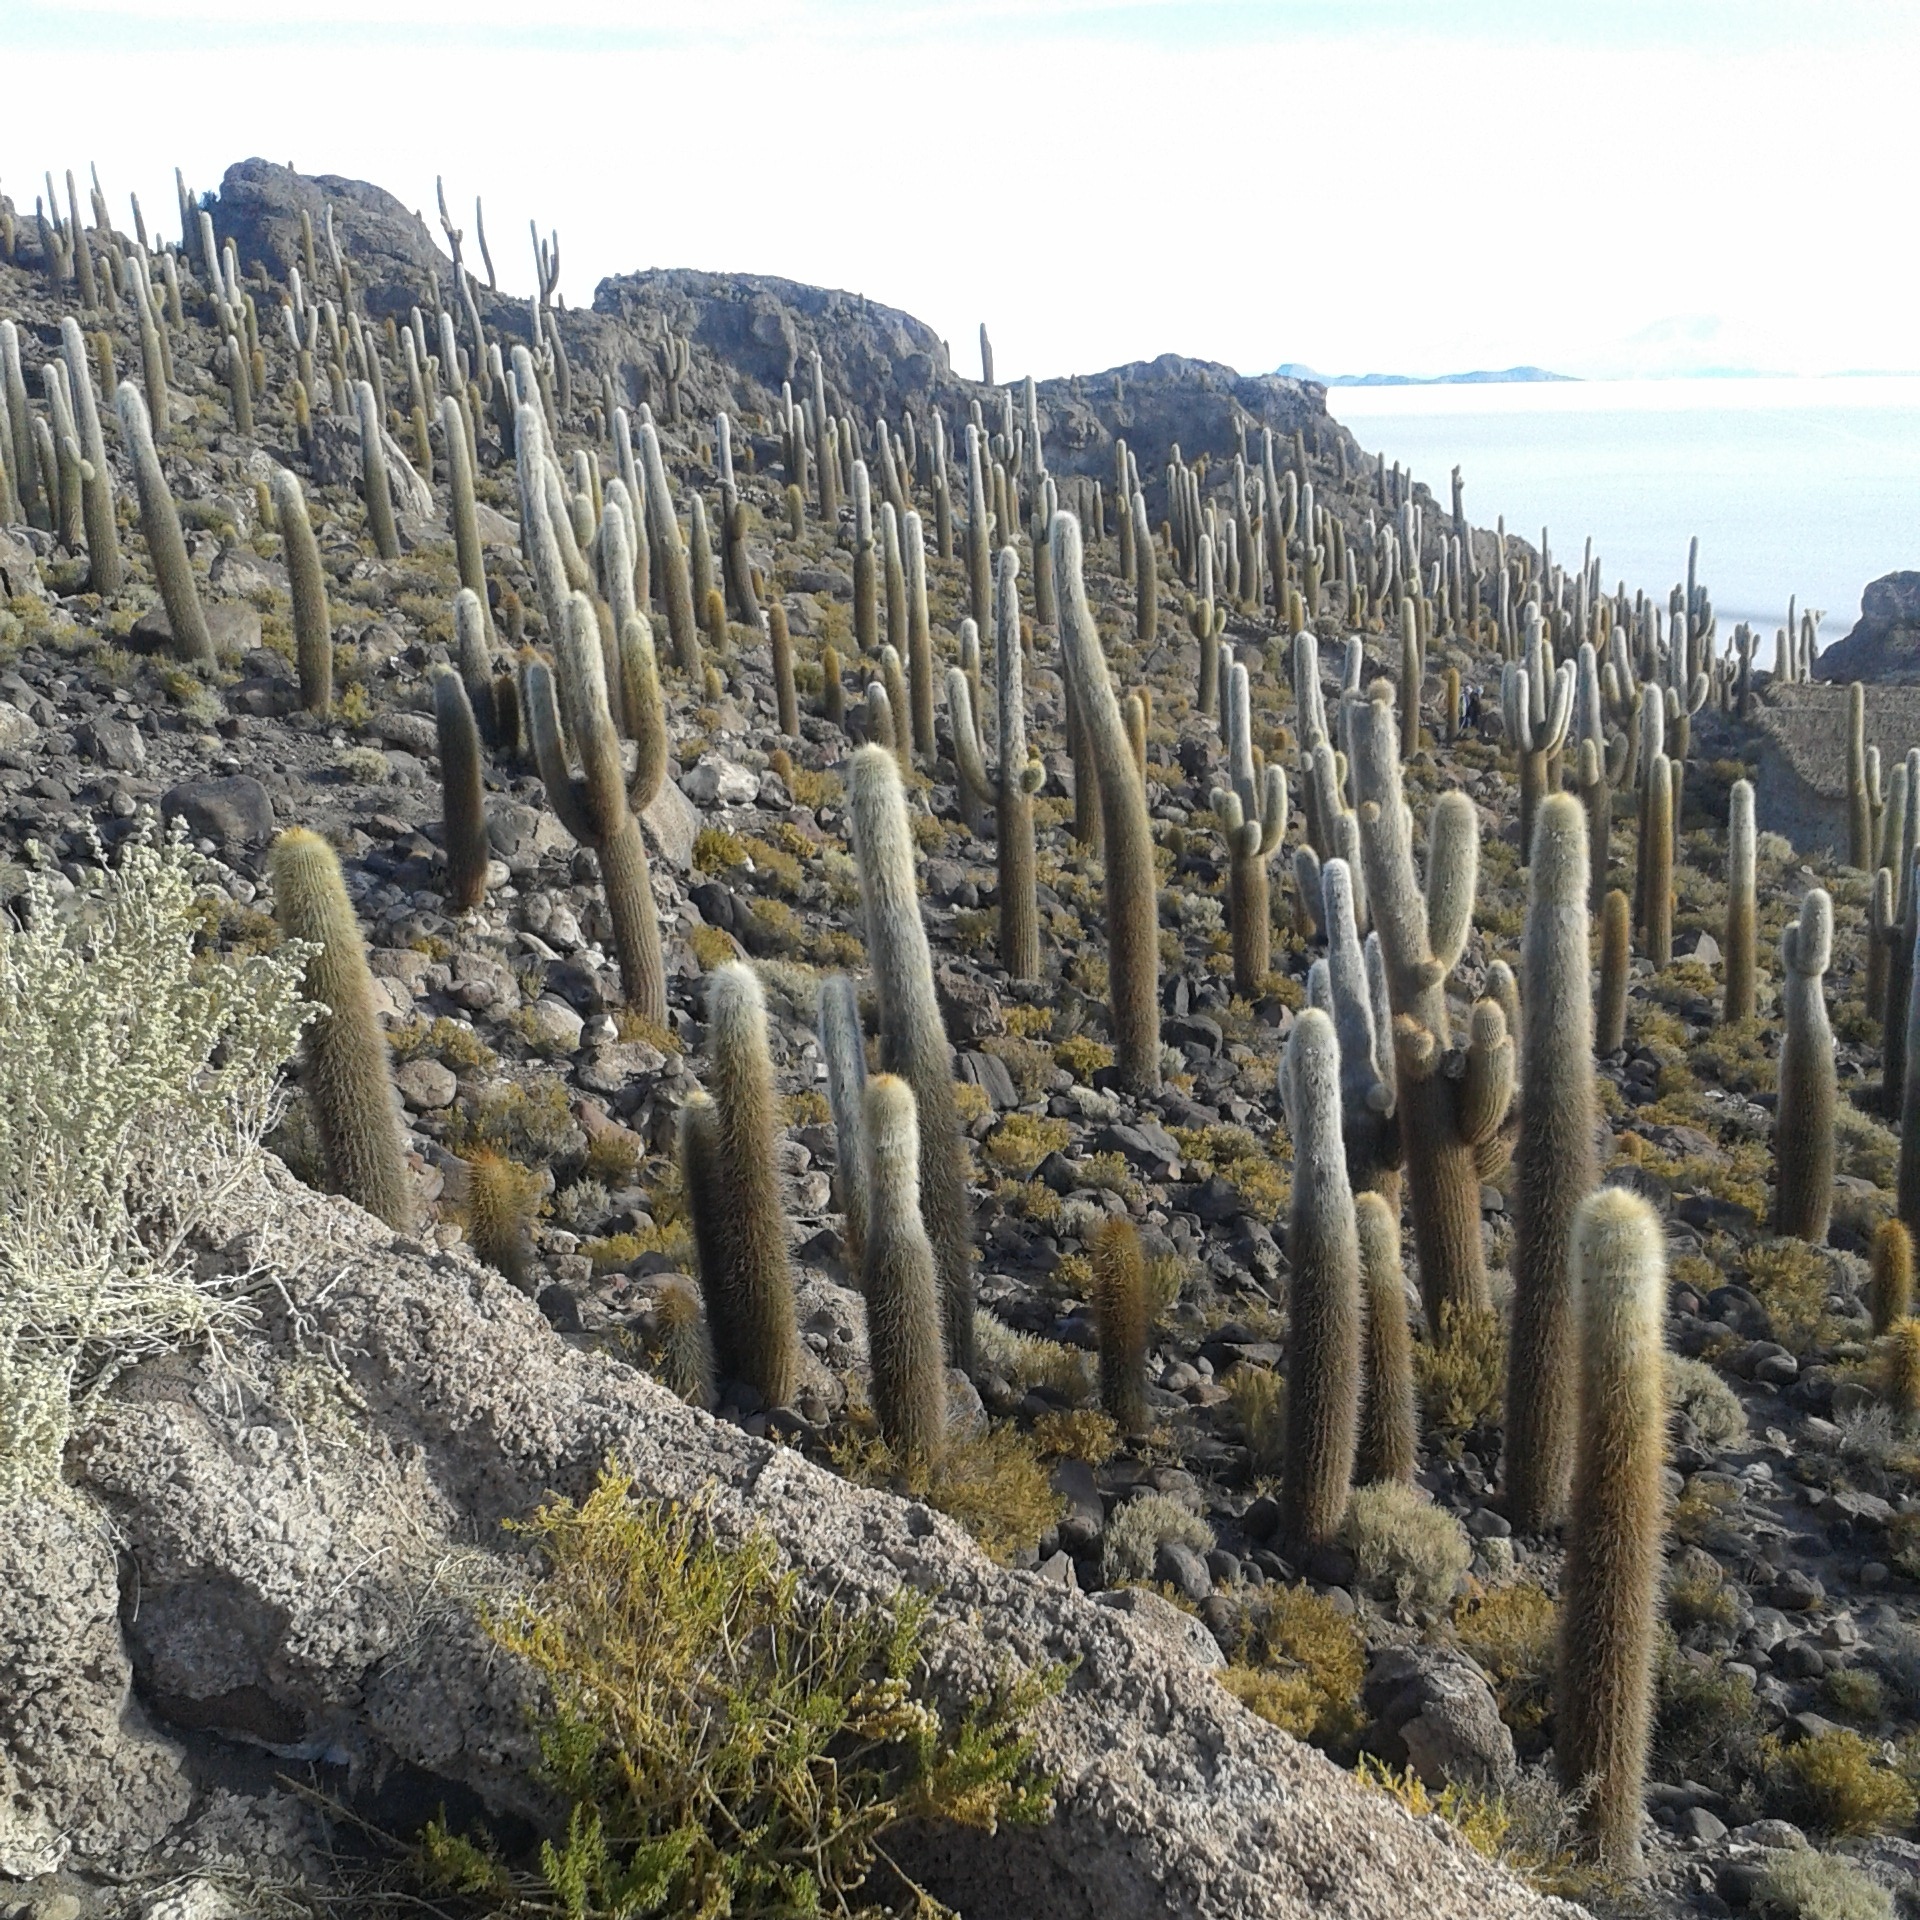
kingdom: Plantae
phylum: Tracheophyta
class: Magnoliopsida
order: Caryophyllales
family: Cactaceae
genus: Leucostele
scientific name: Leucostele atacamensis
